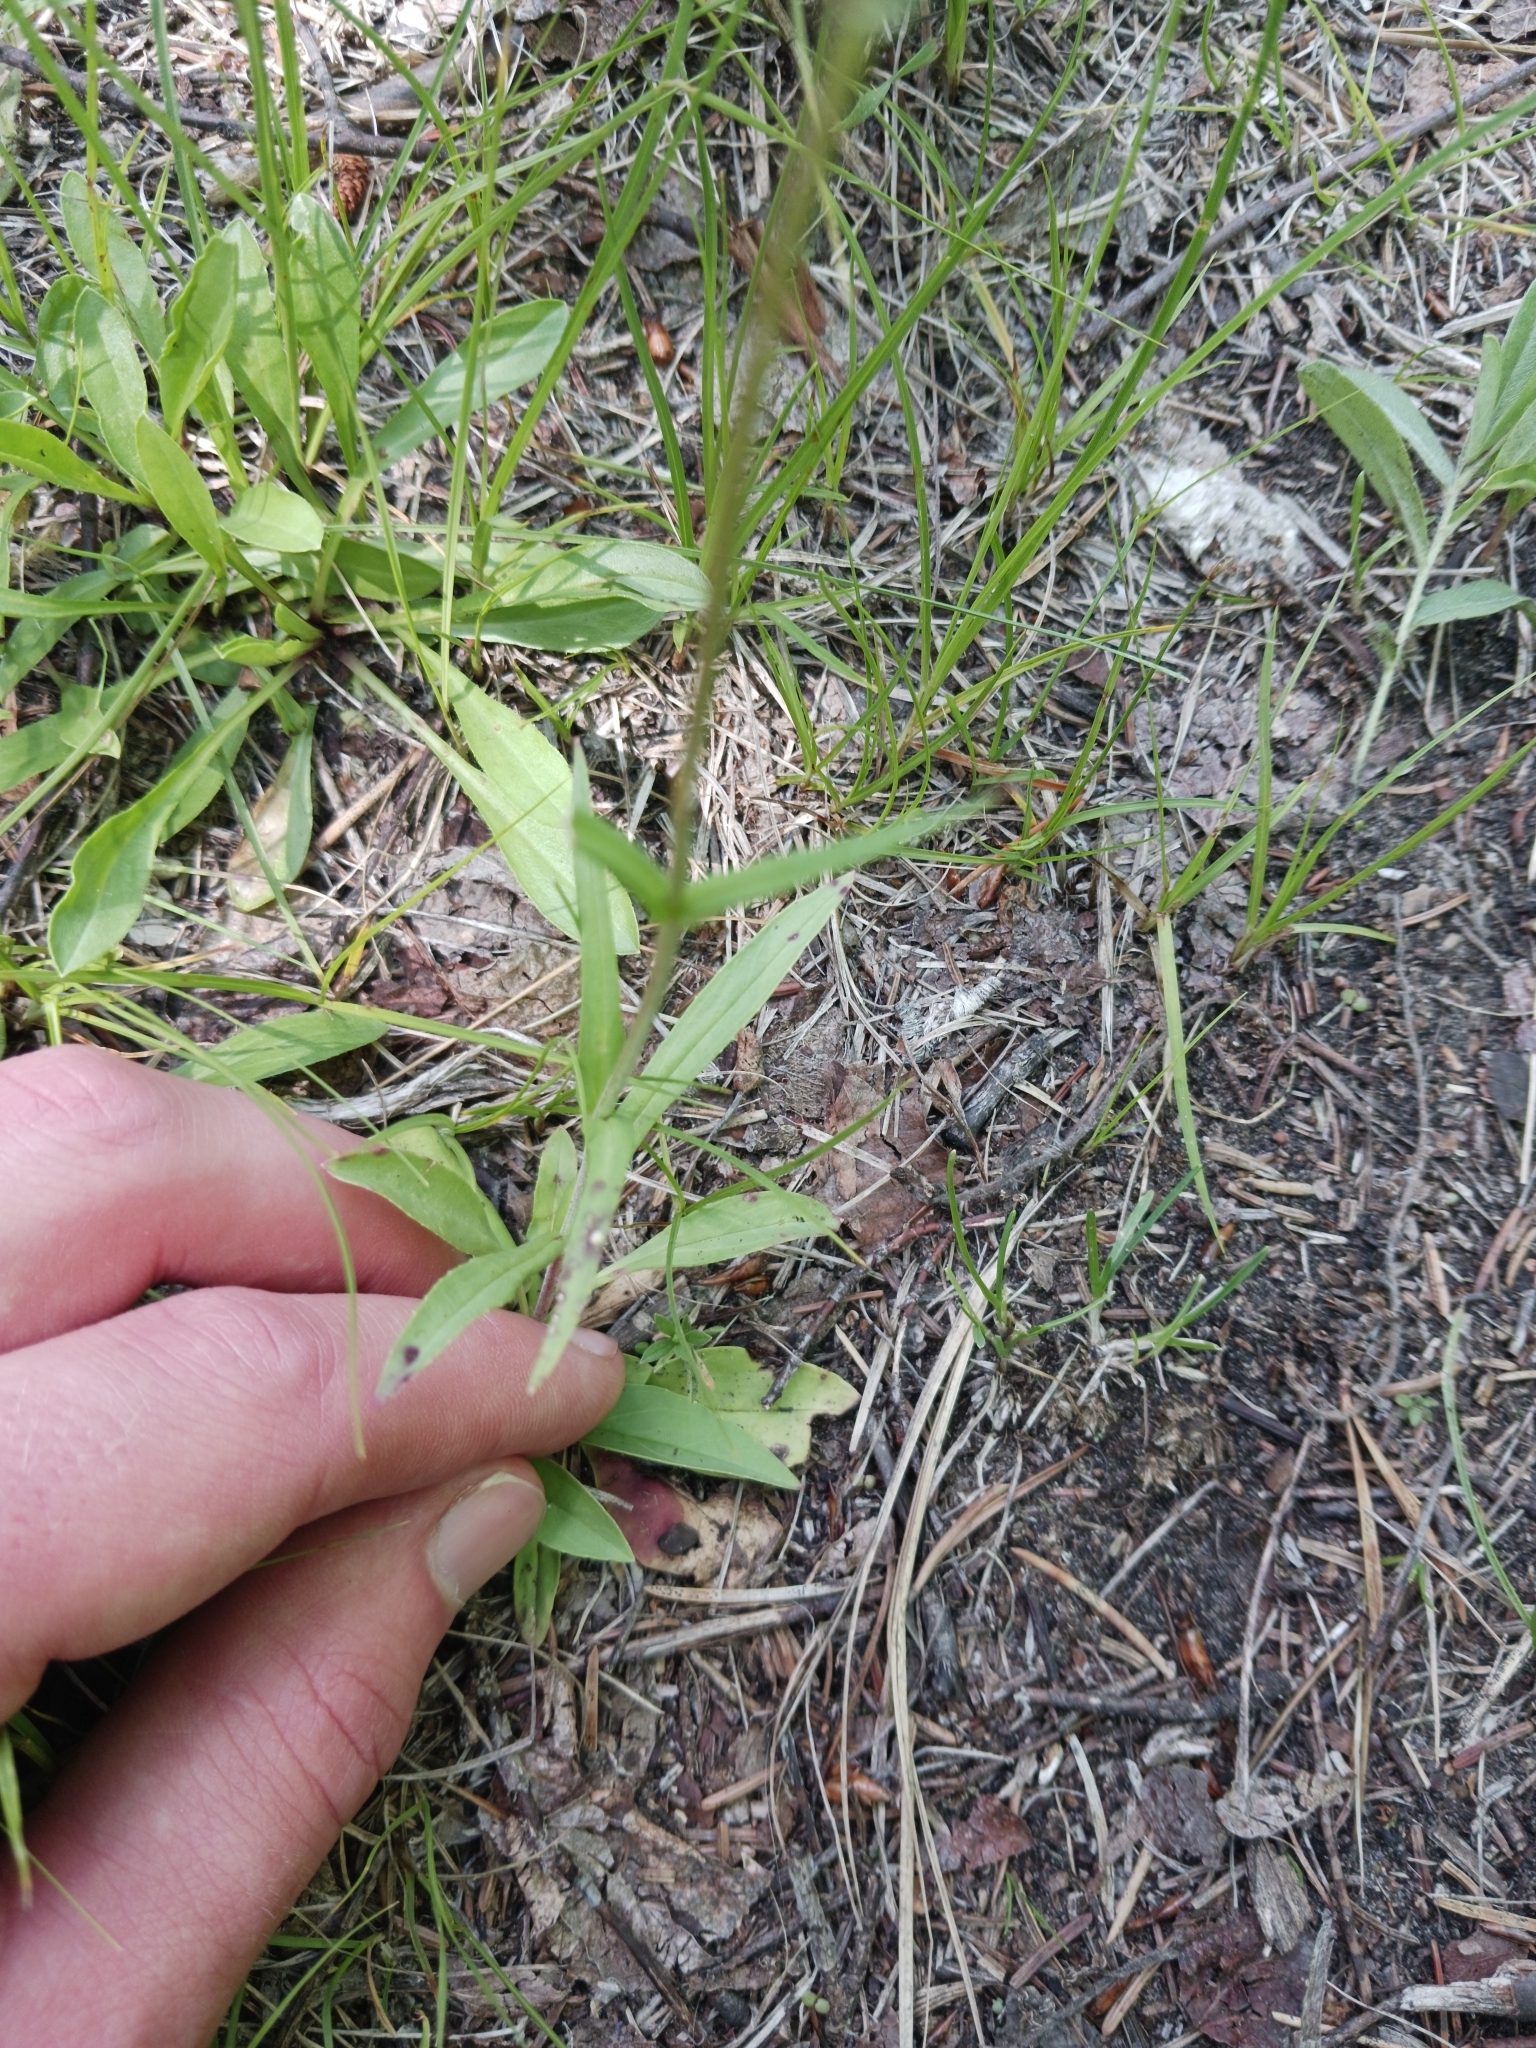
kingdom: Plantae
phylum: Tracheophyta
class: Magnoliopsida
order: Lamiales
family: Plantaginaceae
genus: Penstemon
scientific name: Penstemon gracilis
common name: Slender beardtongue
